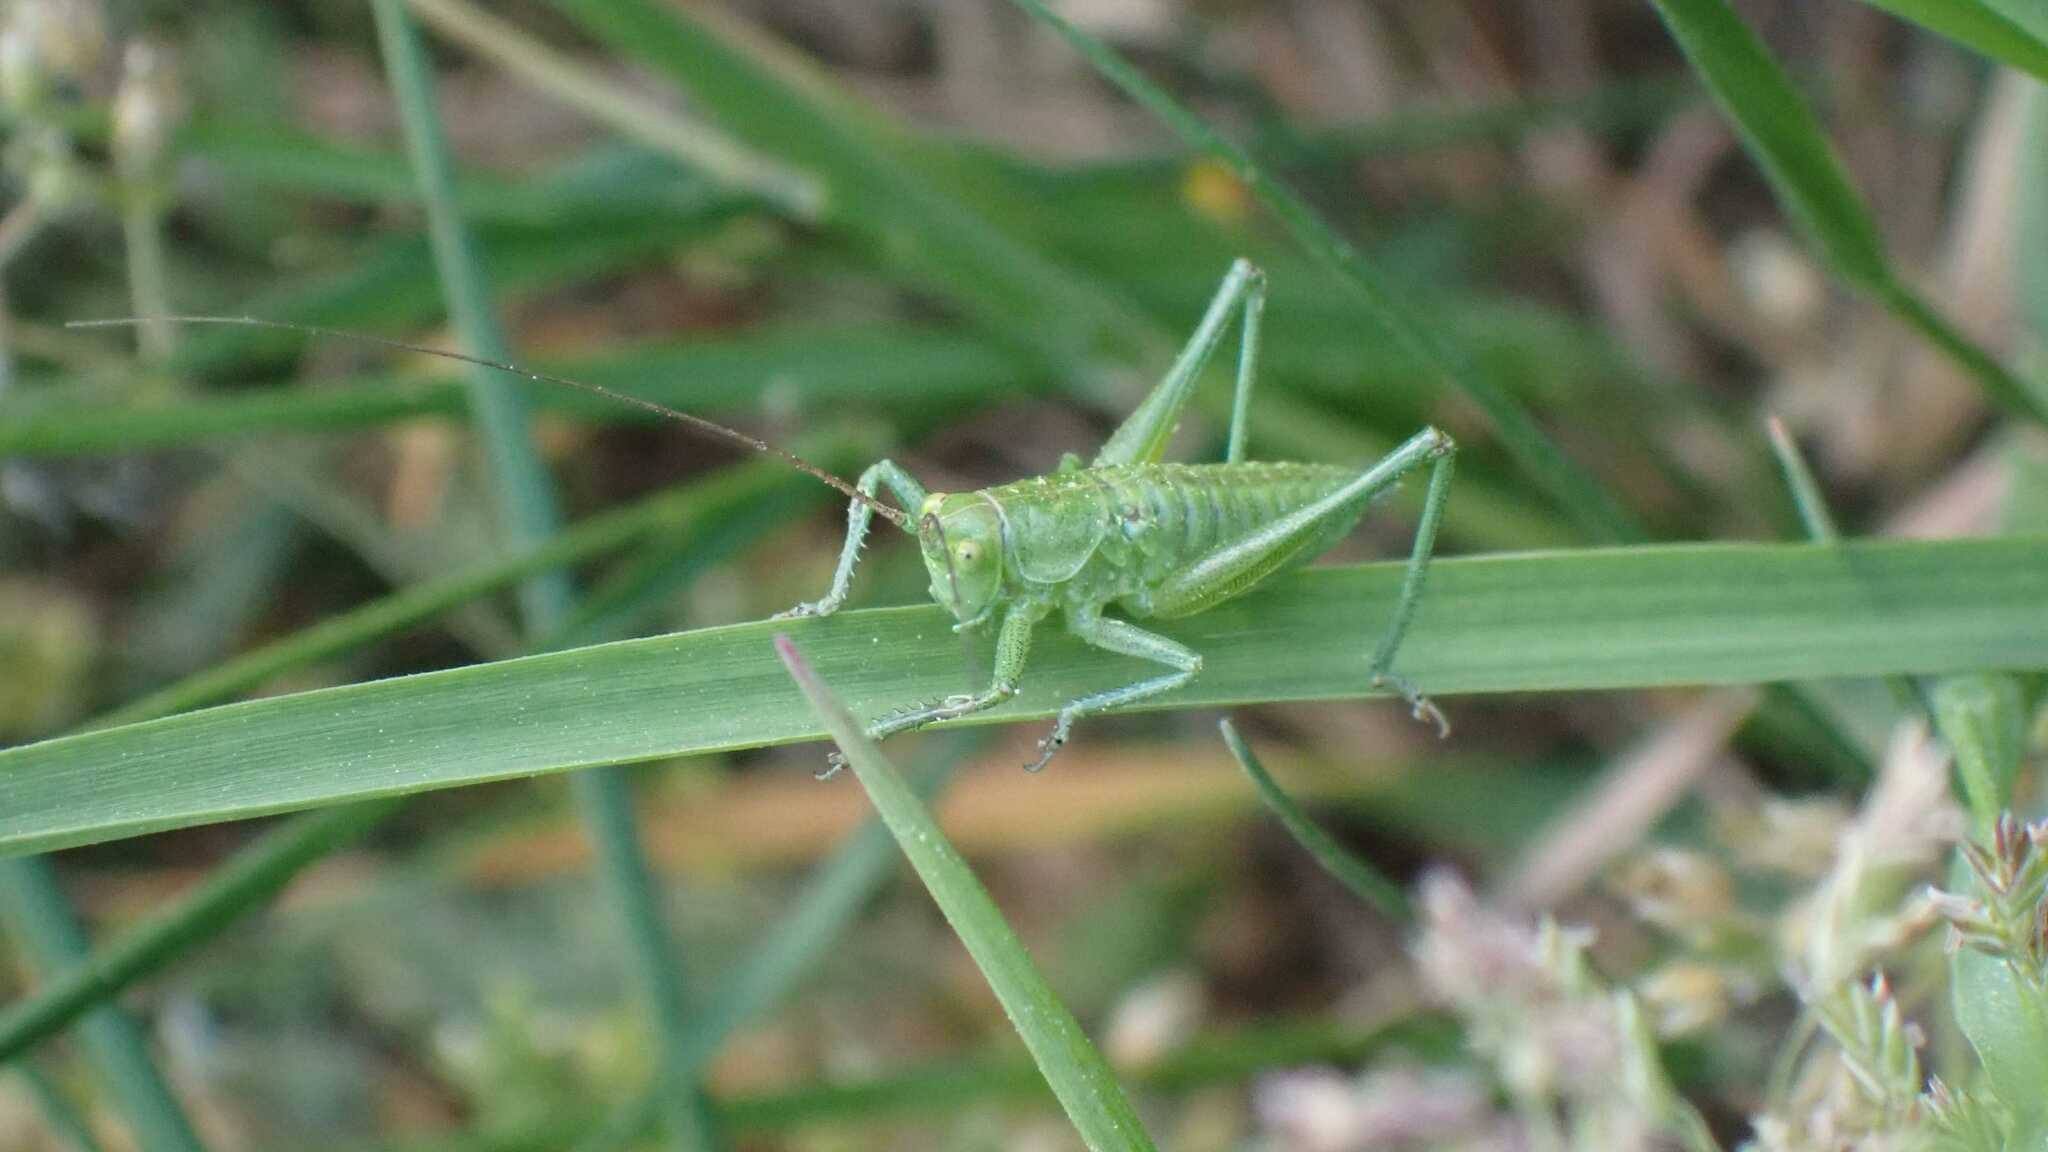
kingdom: Animalia
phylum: Arthropoda
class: Insecta
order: Orthoptera
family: Tettigoniidae
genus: Tettigonia
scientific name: Tettigonia viridissima
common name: Great green bush-cricket
